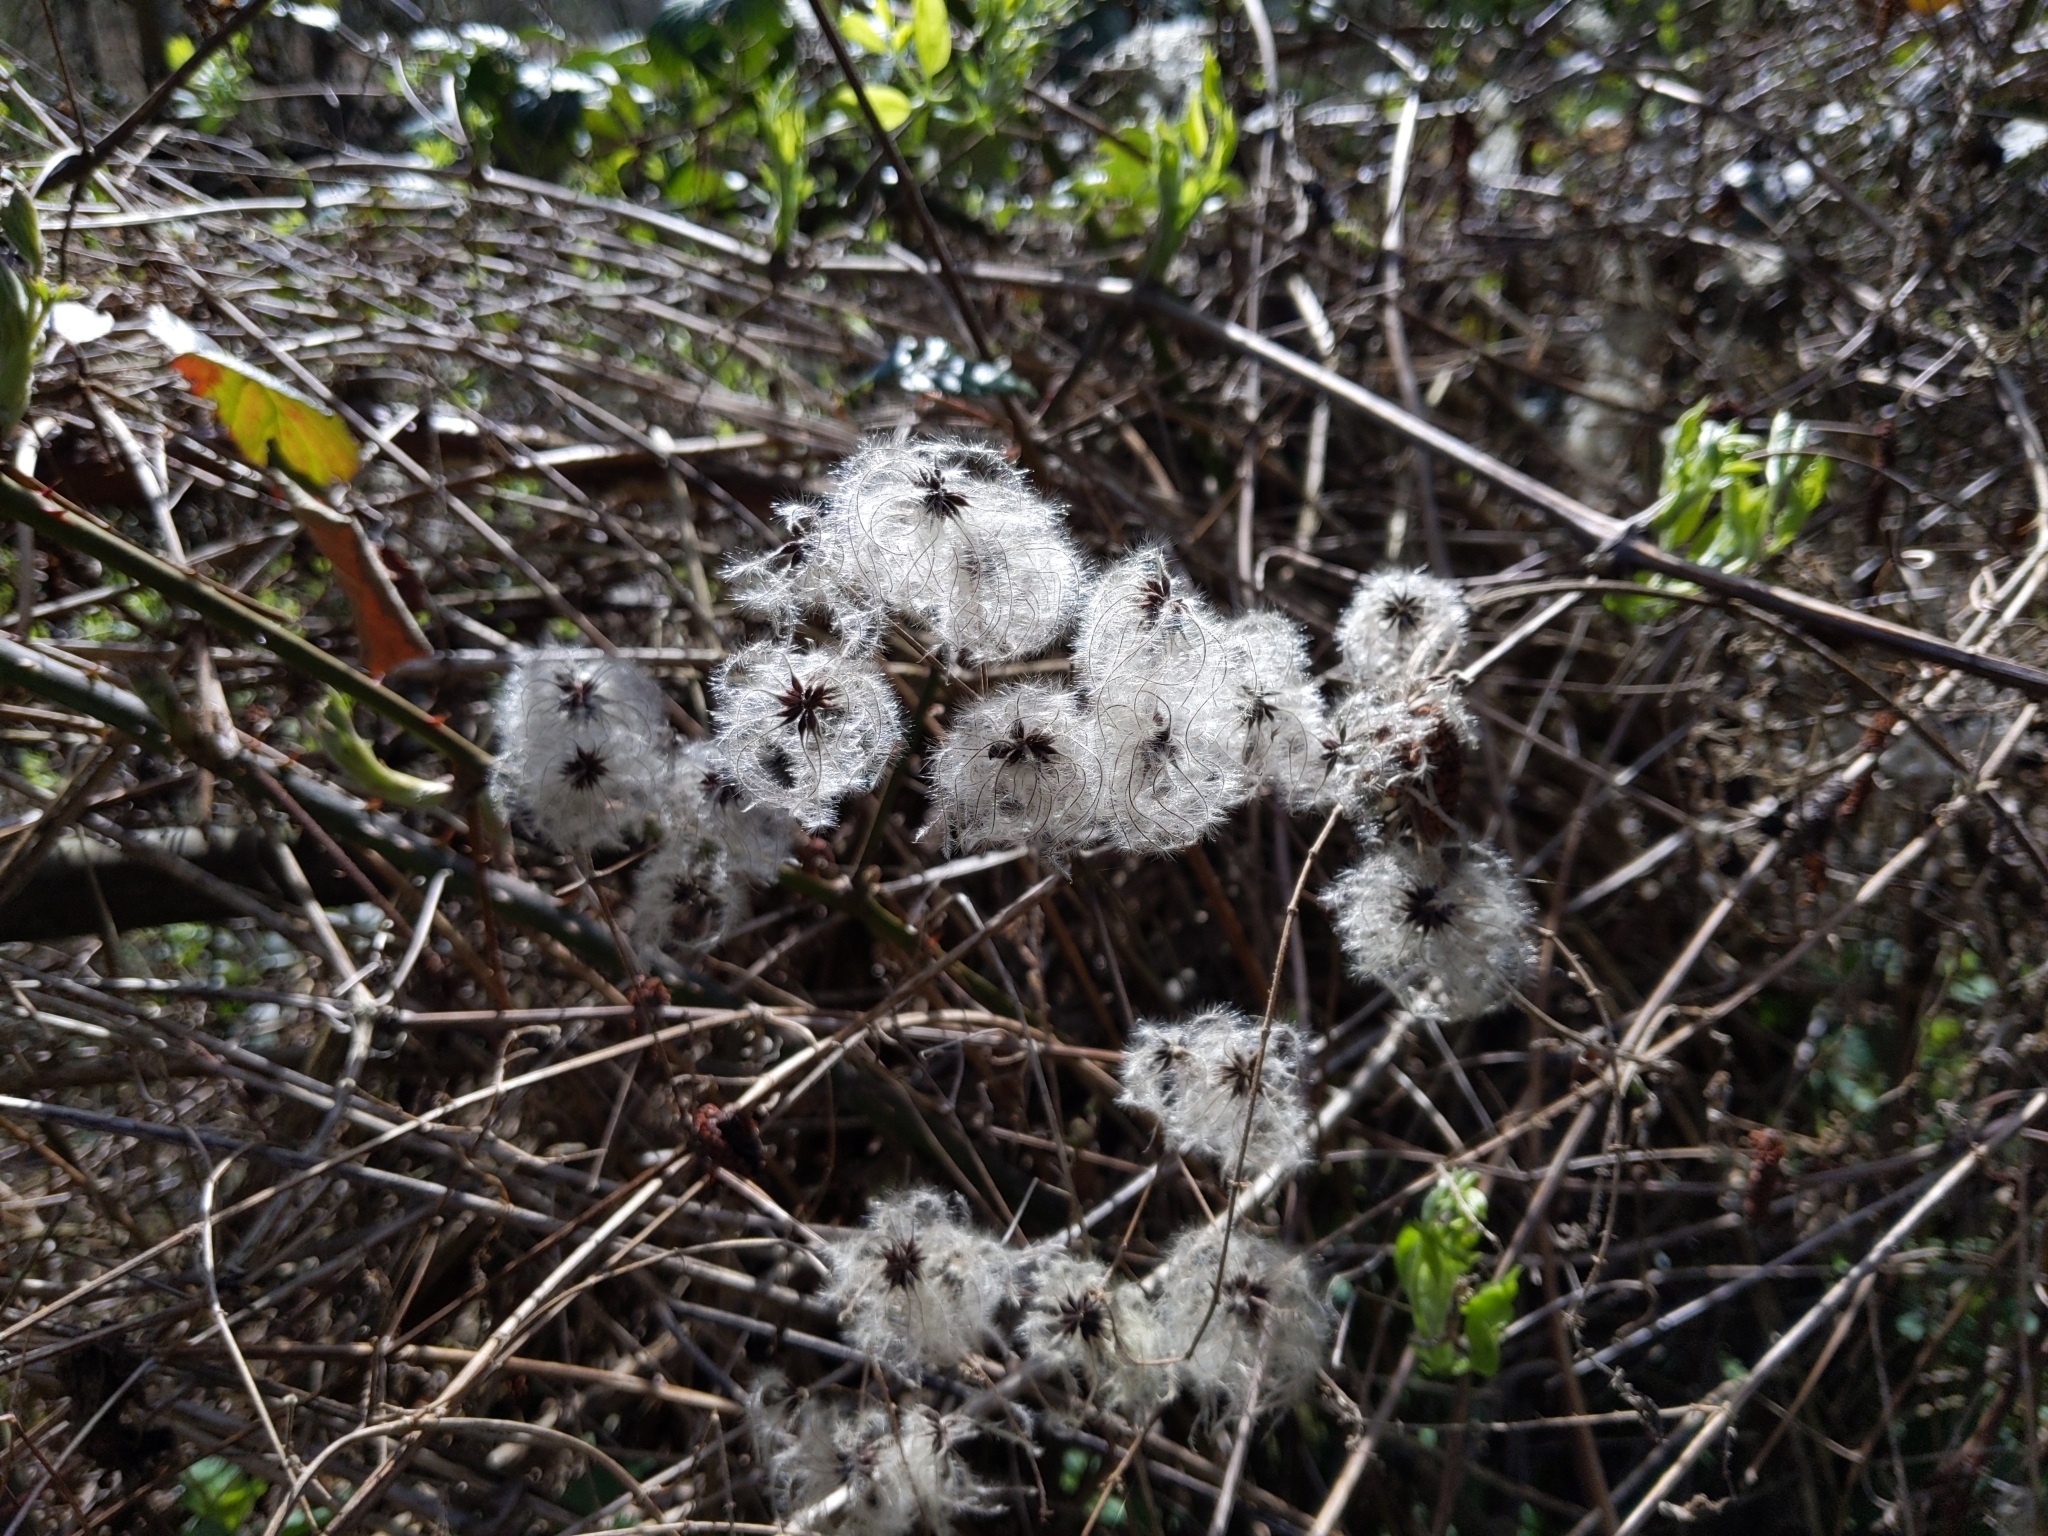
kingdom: Plantae
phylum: Tracheophyta
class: Magnoliopsida
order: Ranunculales
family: Ranunculaceae
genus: Clematis
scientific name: Clematis vitalba
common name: Evergreen clematis
